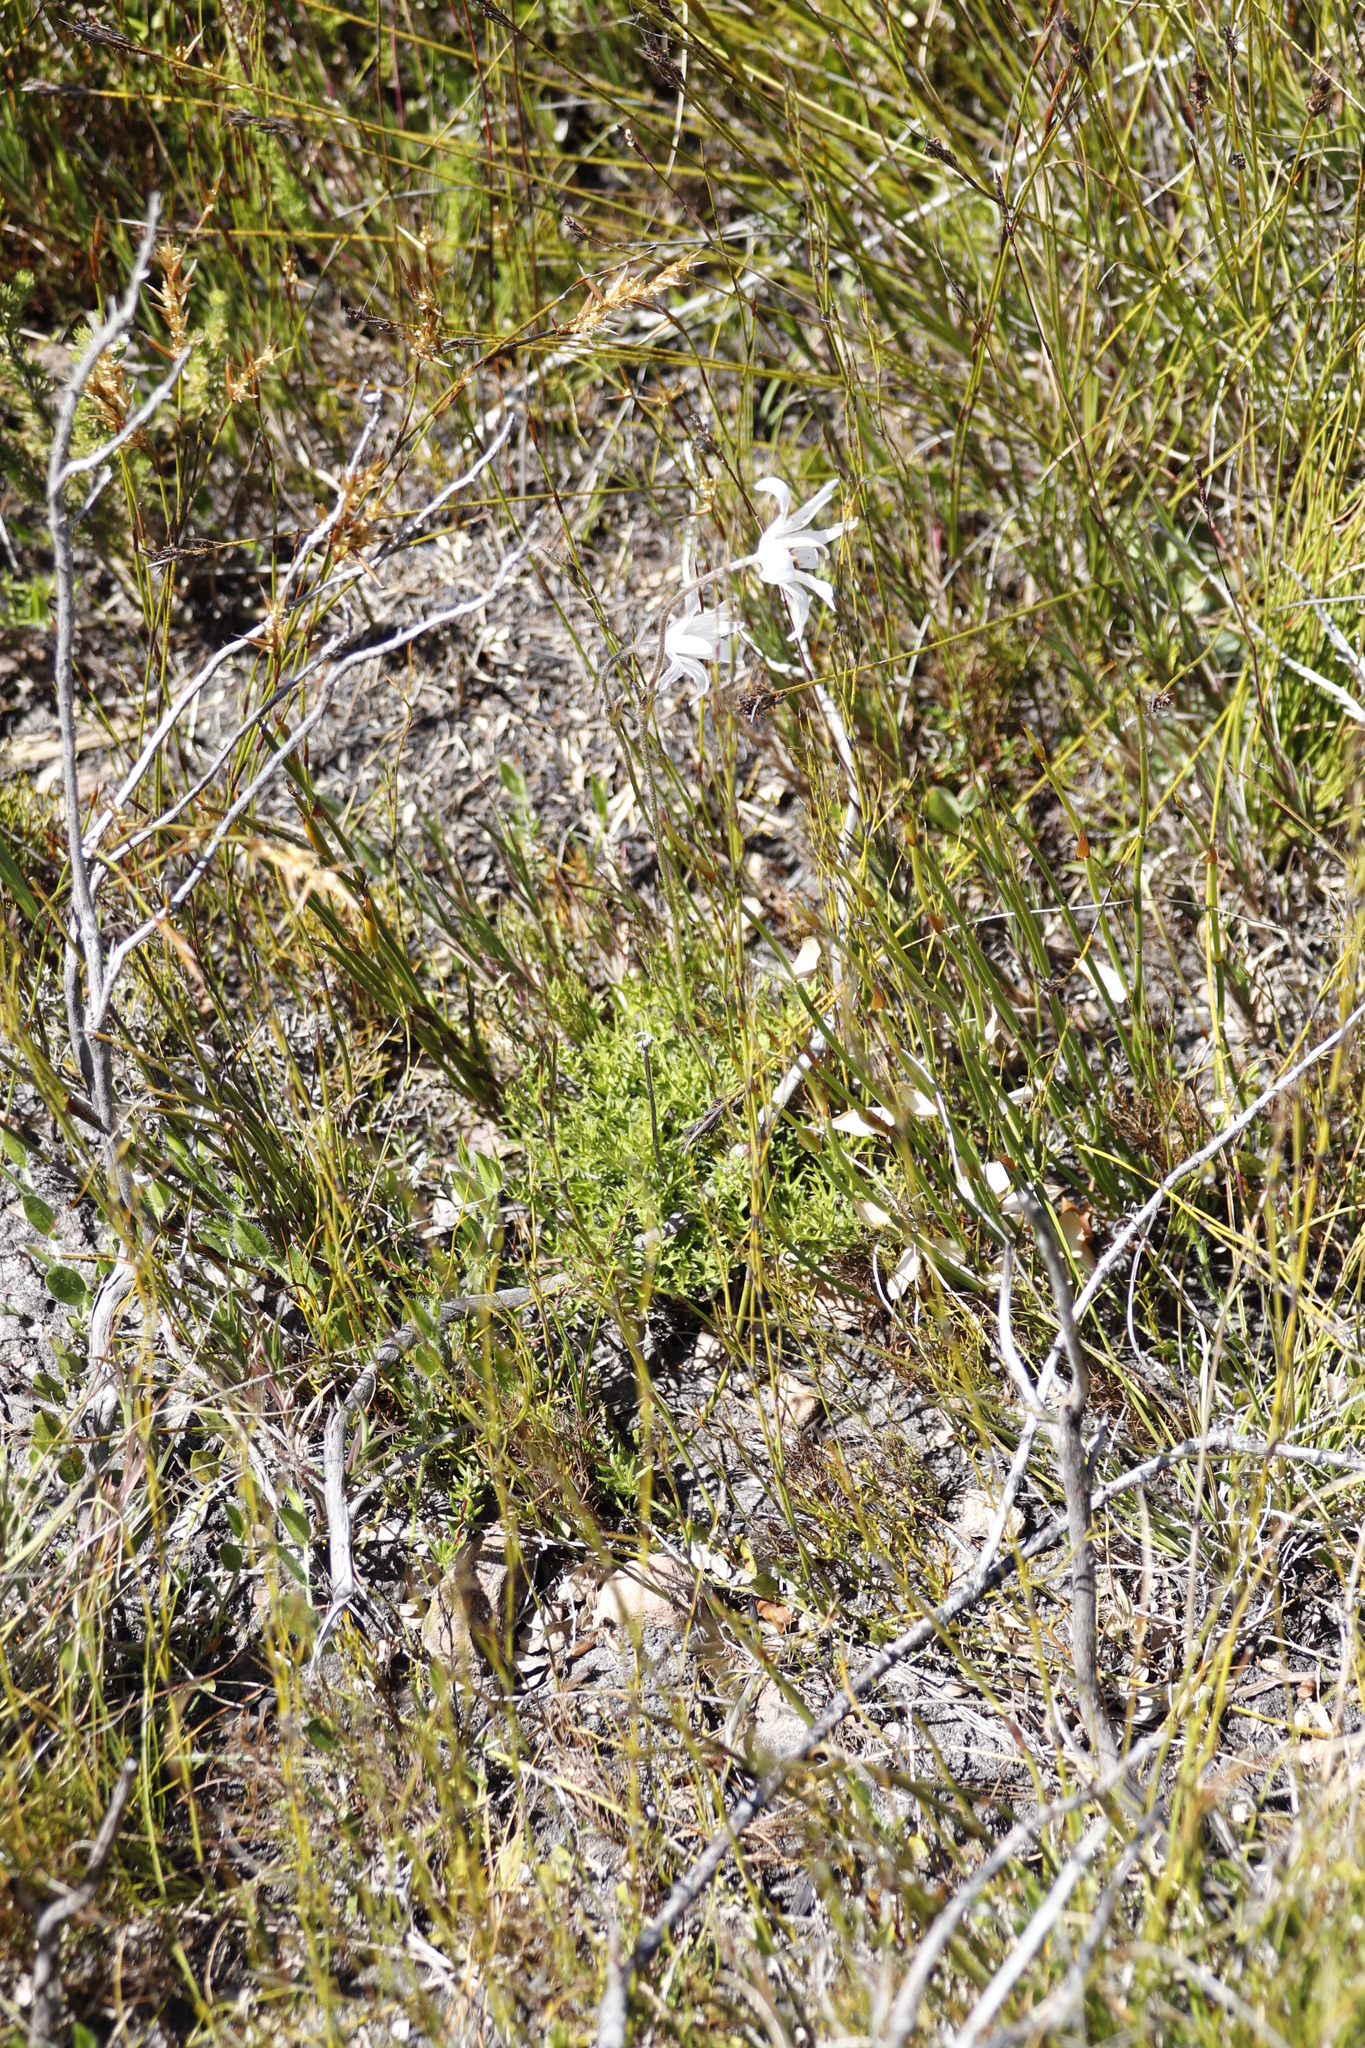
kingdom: Plantae
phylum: Tracheophyta
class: Magnoliopsida
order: Ranunculales
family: Ranunculaceae
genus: Knowltonia
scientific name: Knowltonia tenuifolia
